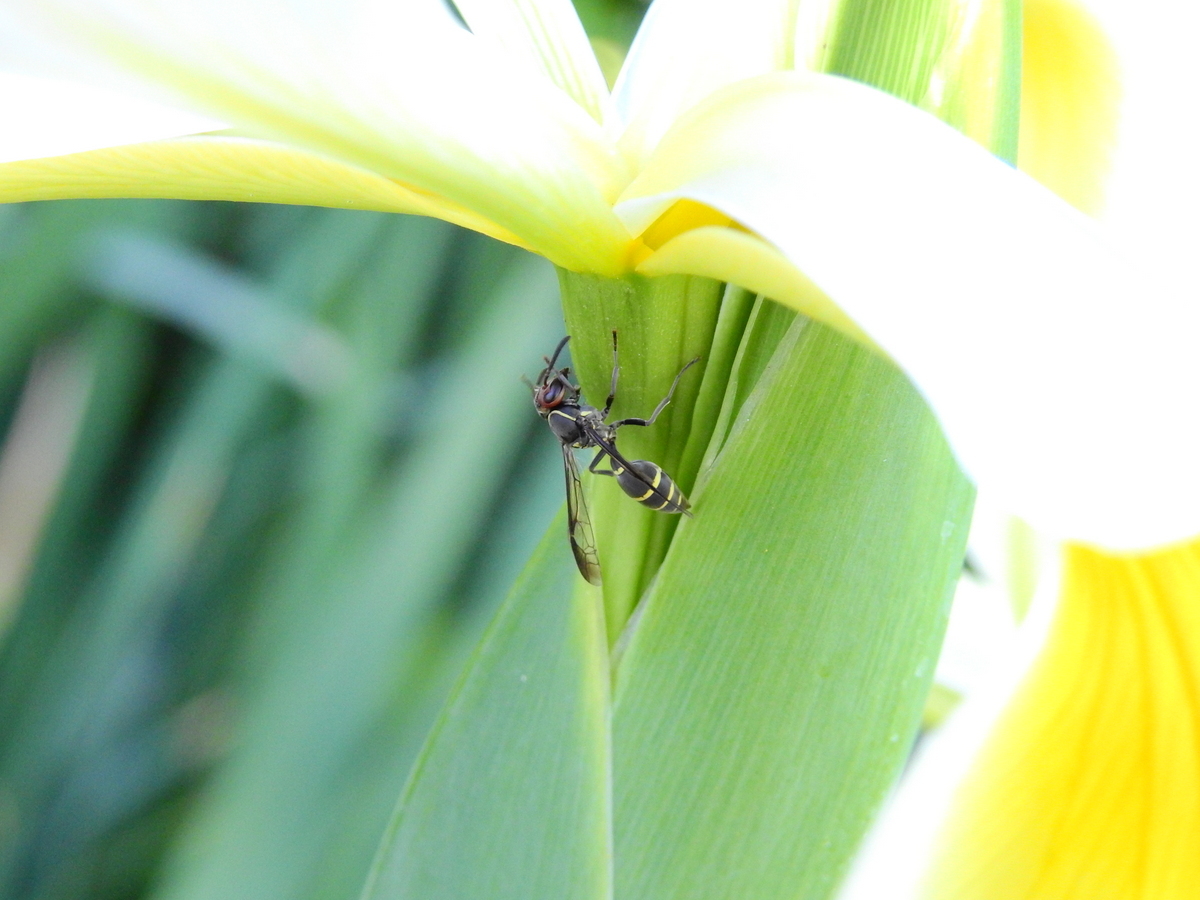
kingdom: Animalia
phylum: Arthropoda
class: Insecta
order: Hymenoptera
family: Eumenidae
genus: Polybia
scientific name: Polybia ruficeps
